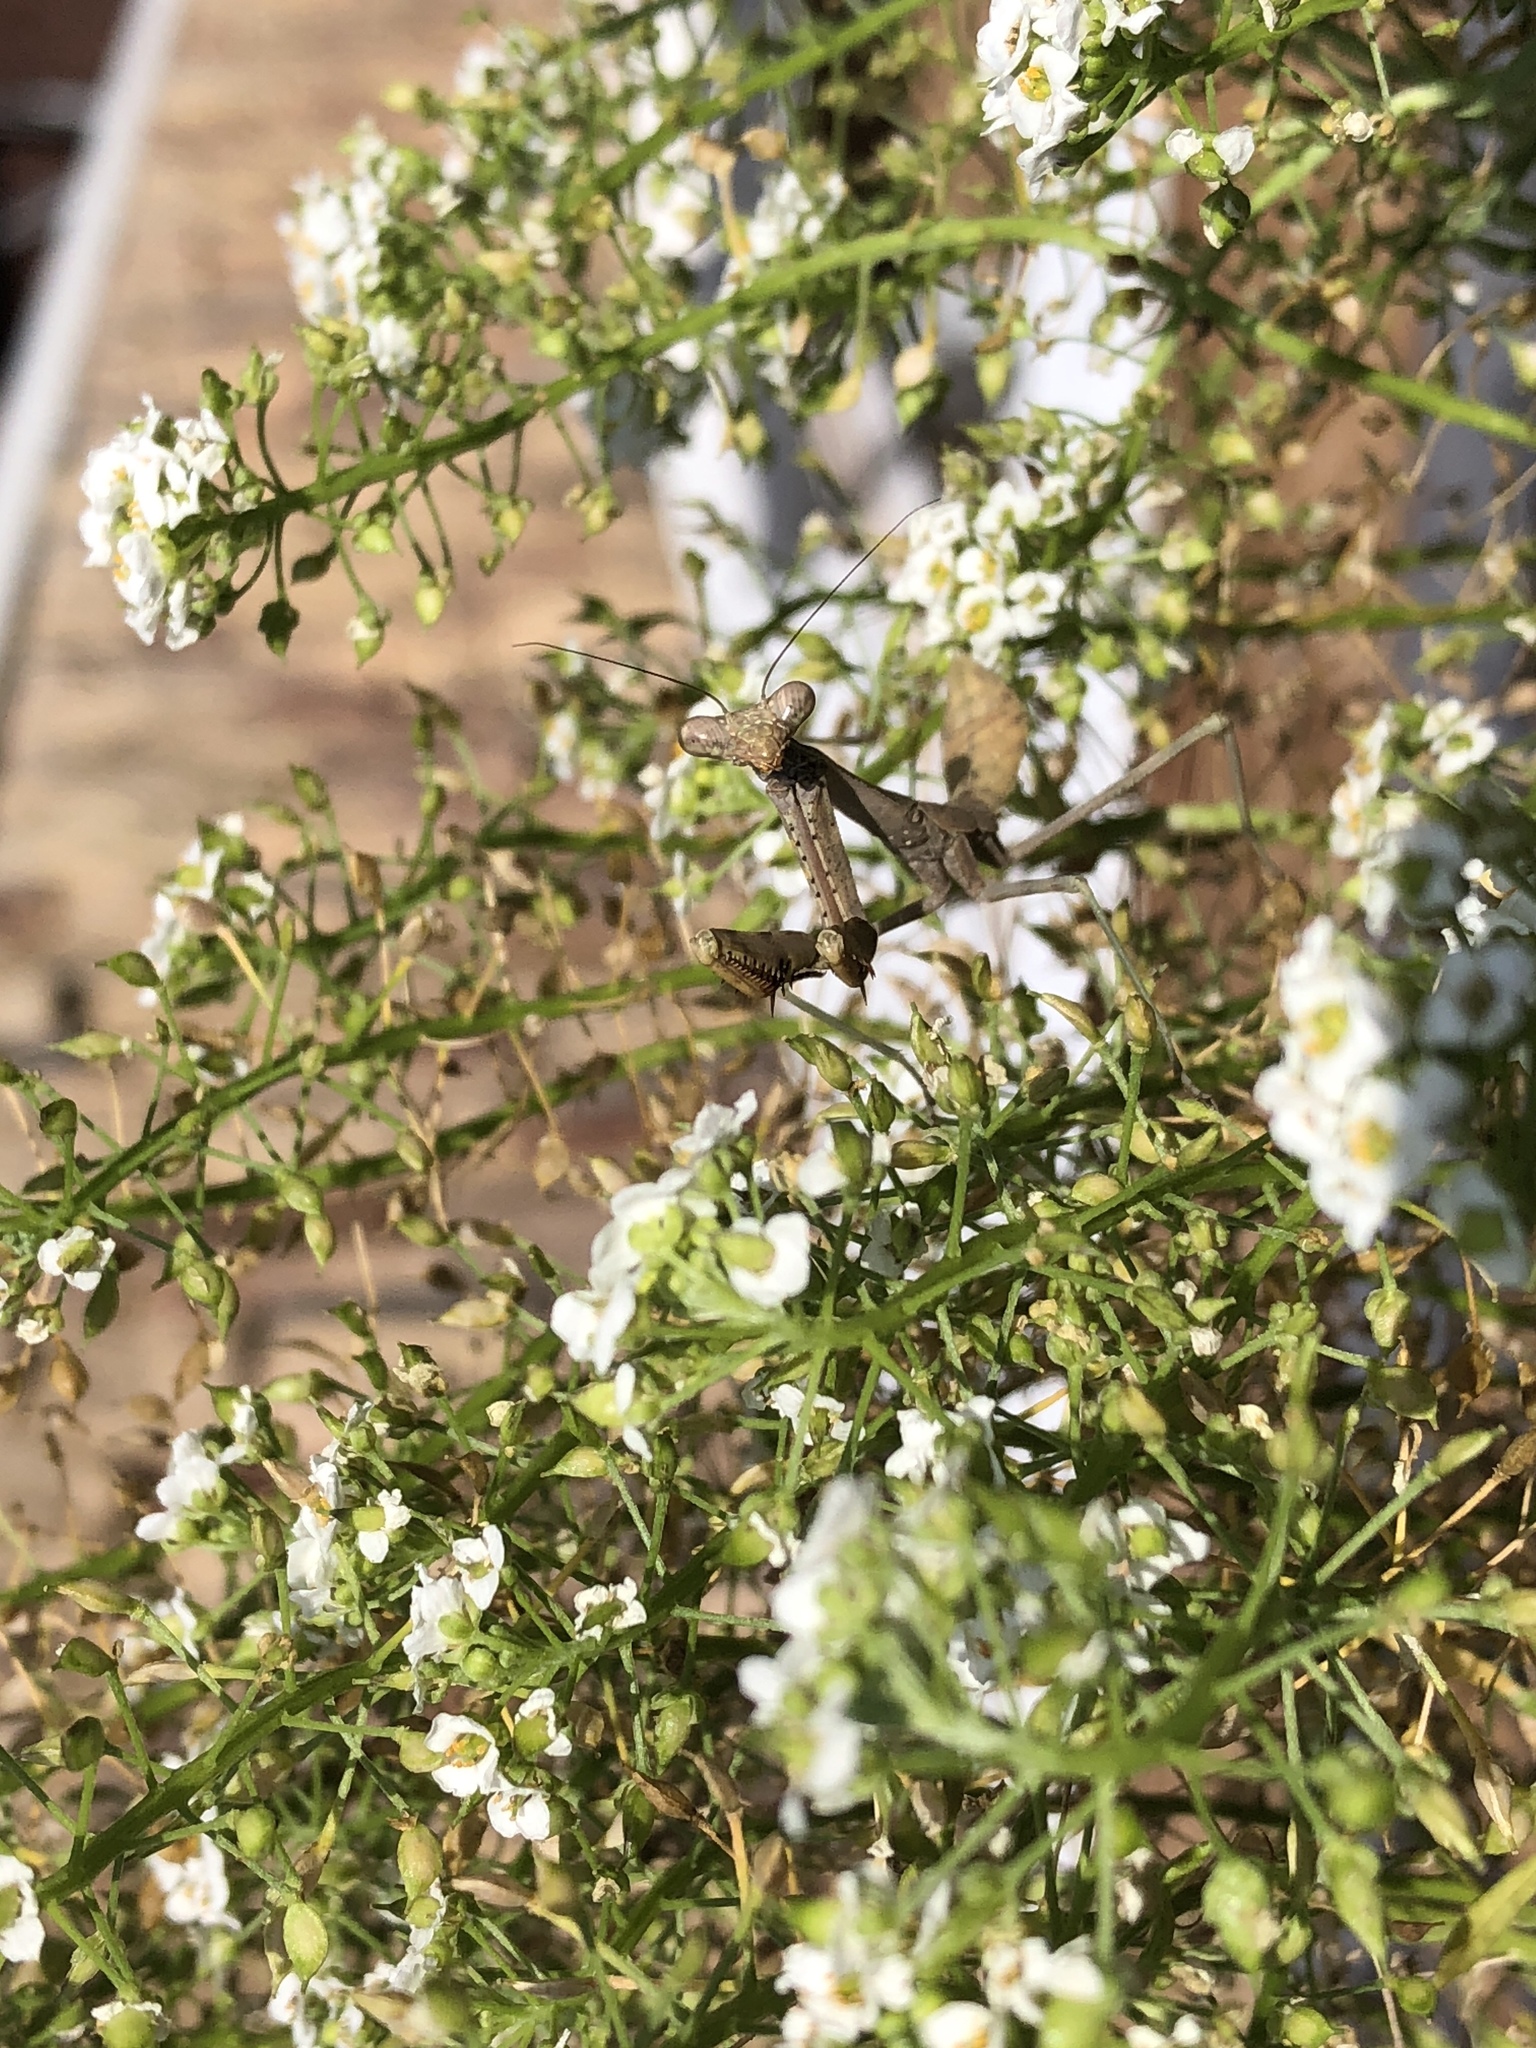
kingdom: Animalia
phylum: Arthropoda
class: Insecta
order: Mantodea
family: Mantidae
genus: Stagmomantis
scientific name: Stagmomantis carolina
